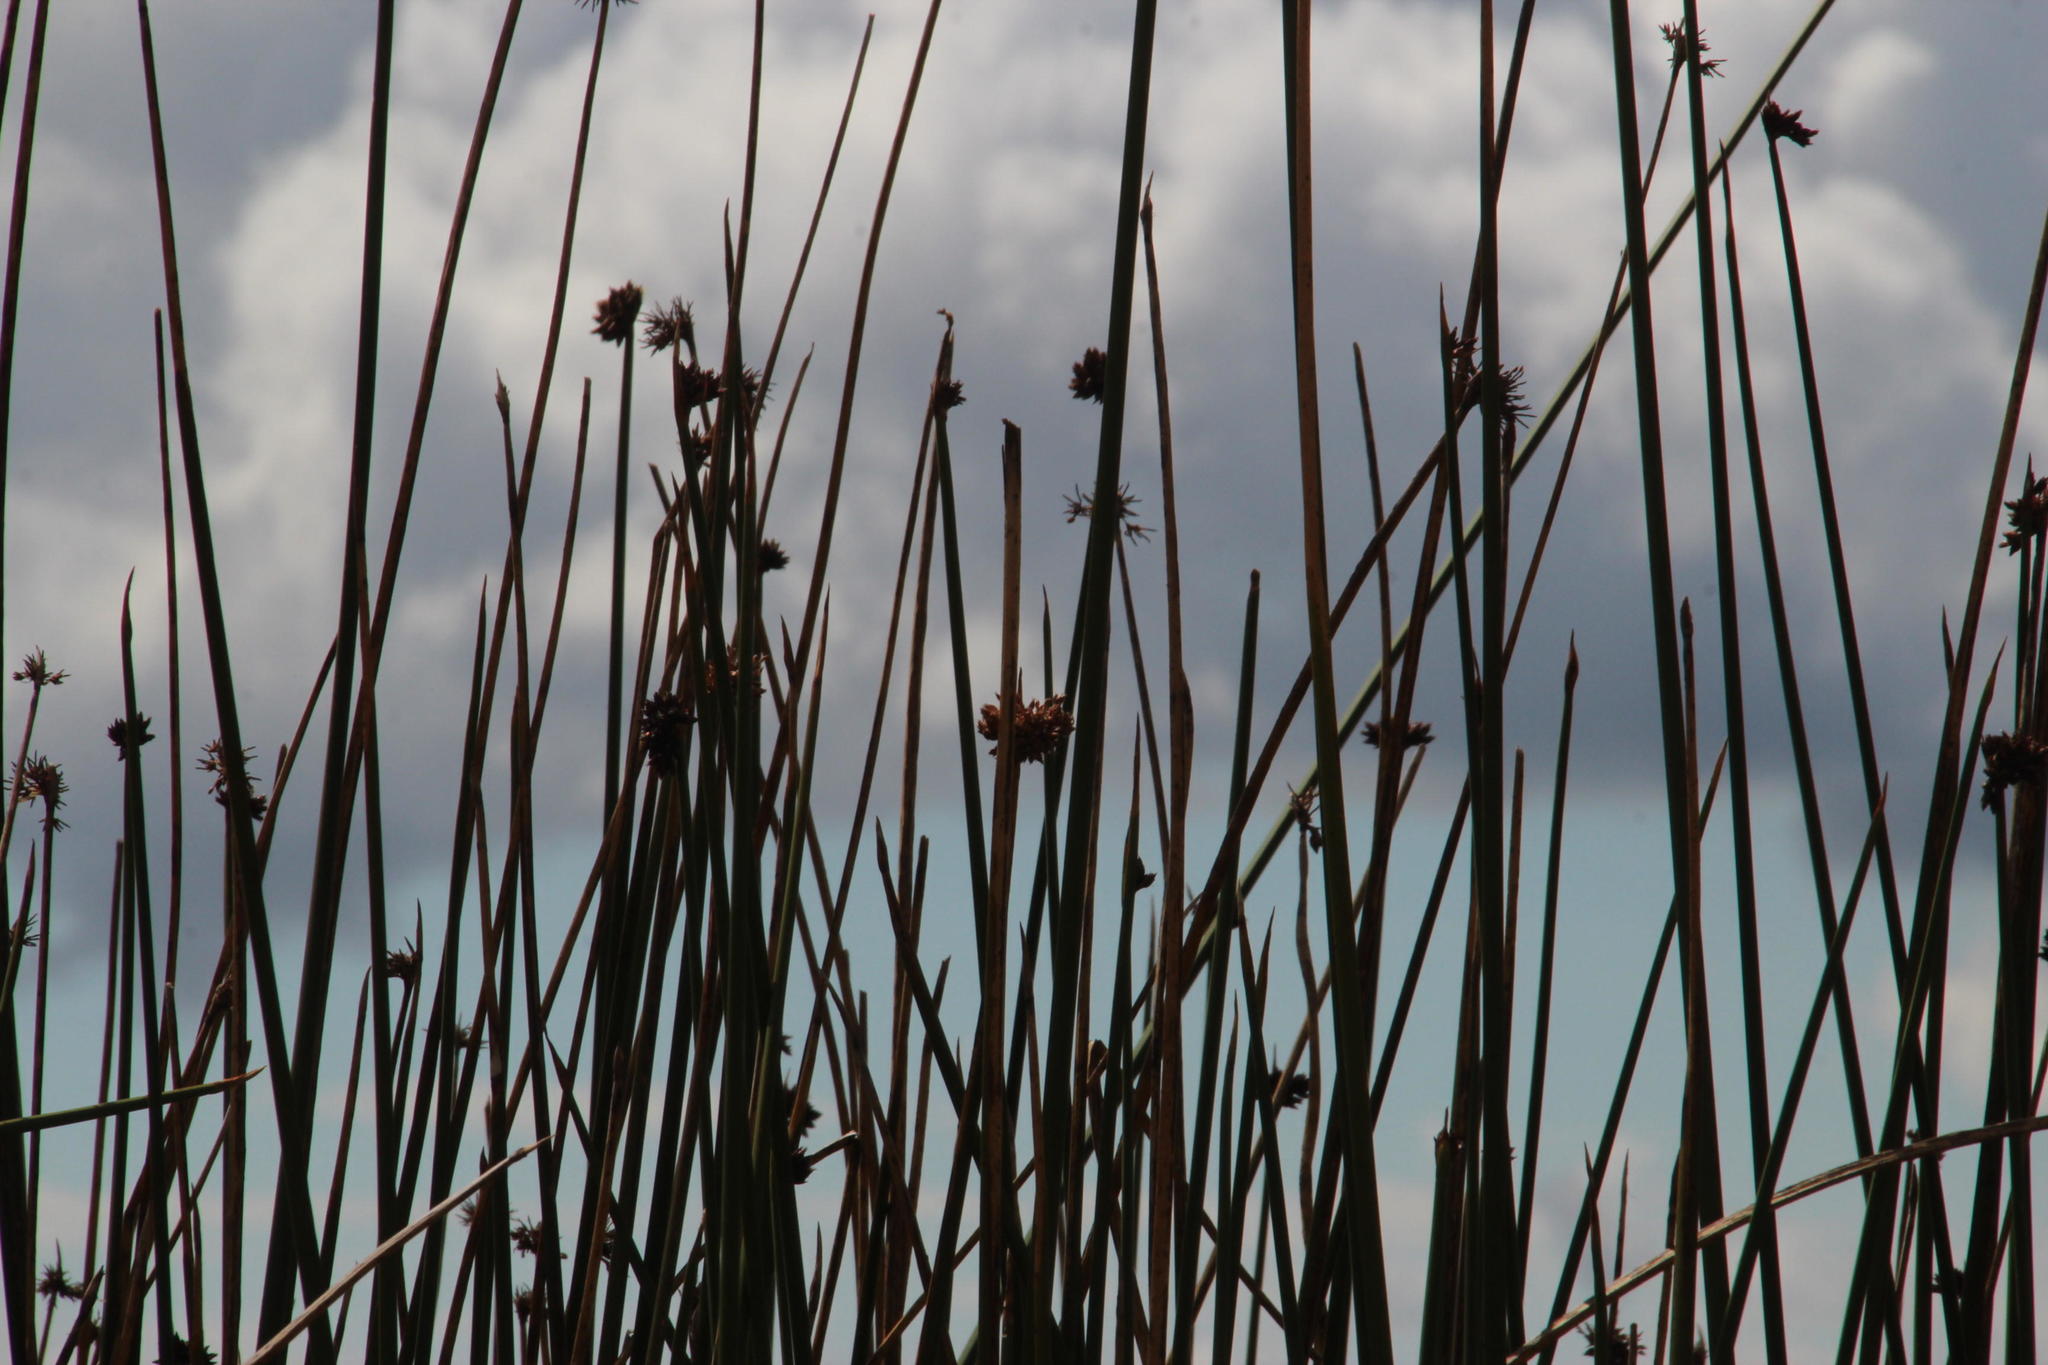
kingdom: Plantae
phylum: Tracheophyta
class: Liliopsida
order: Poales
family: Cyperaceae
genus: Schoenoplectus
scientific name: Schoenoplectus californicus
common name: California bulrush
